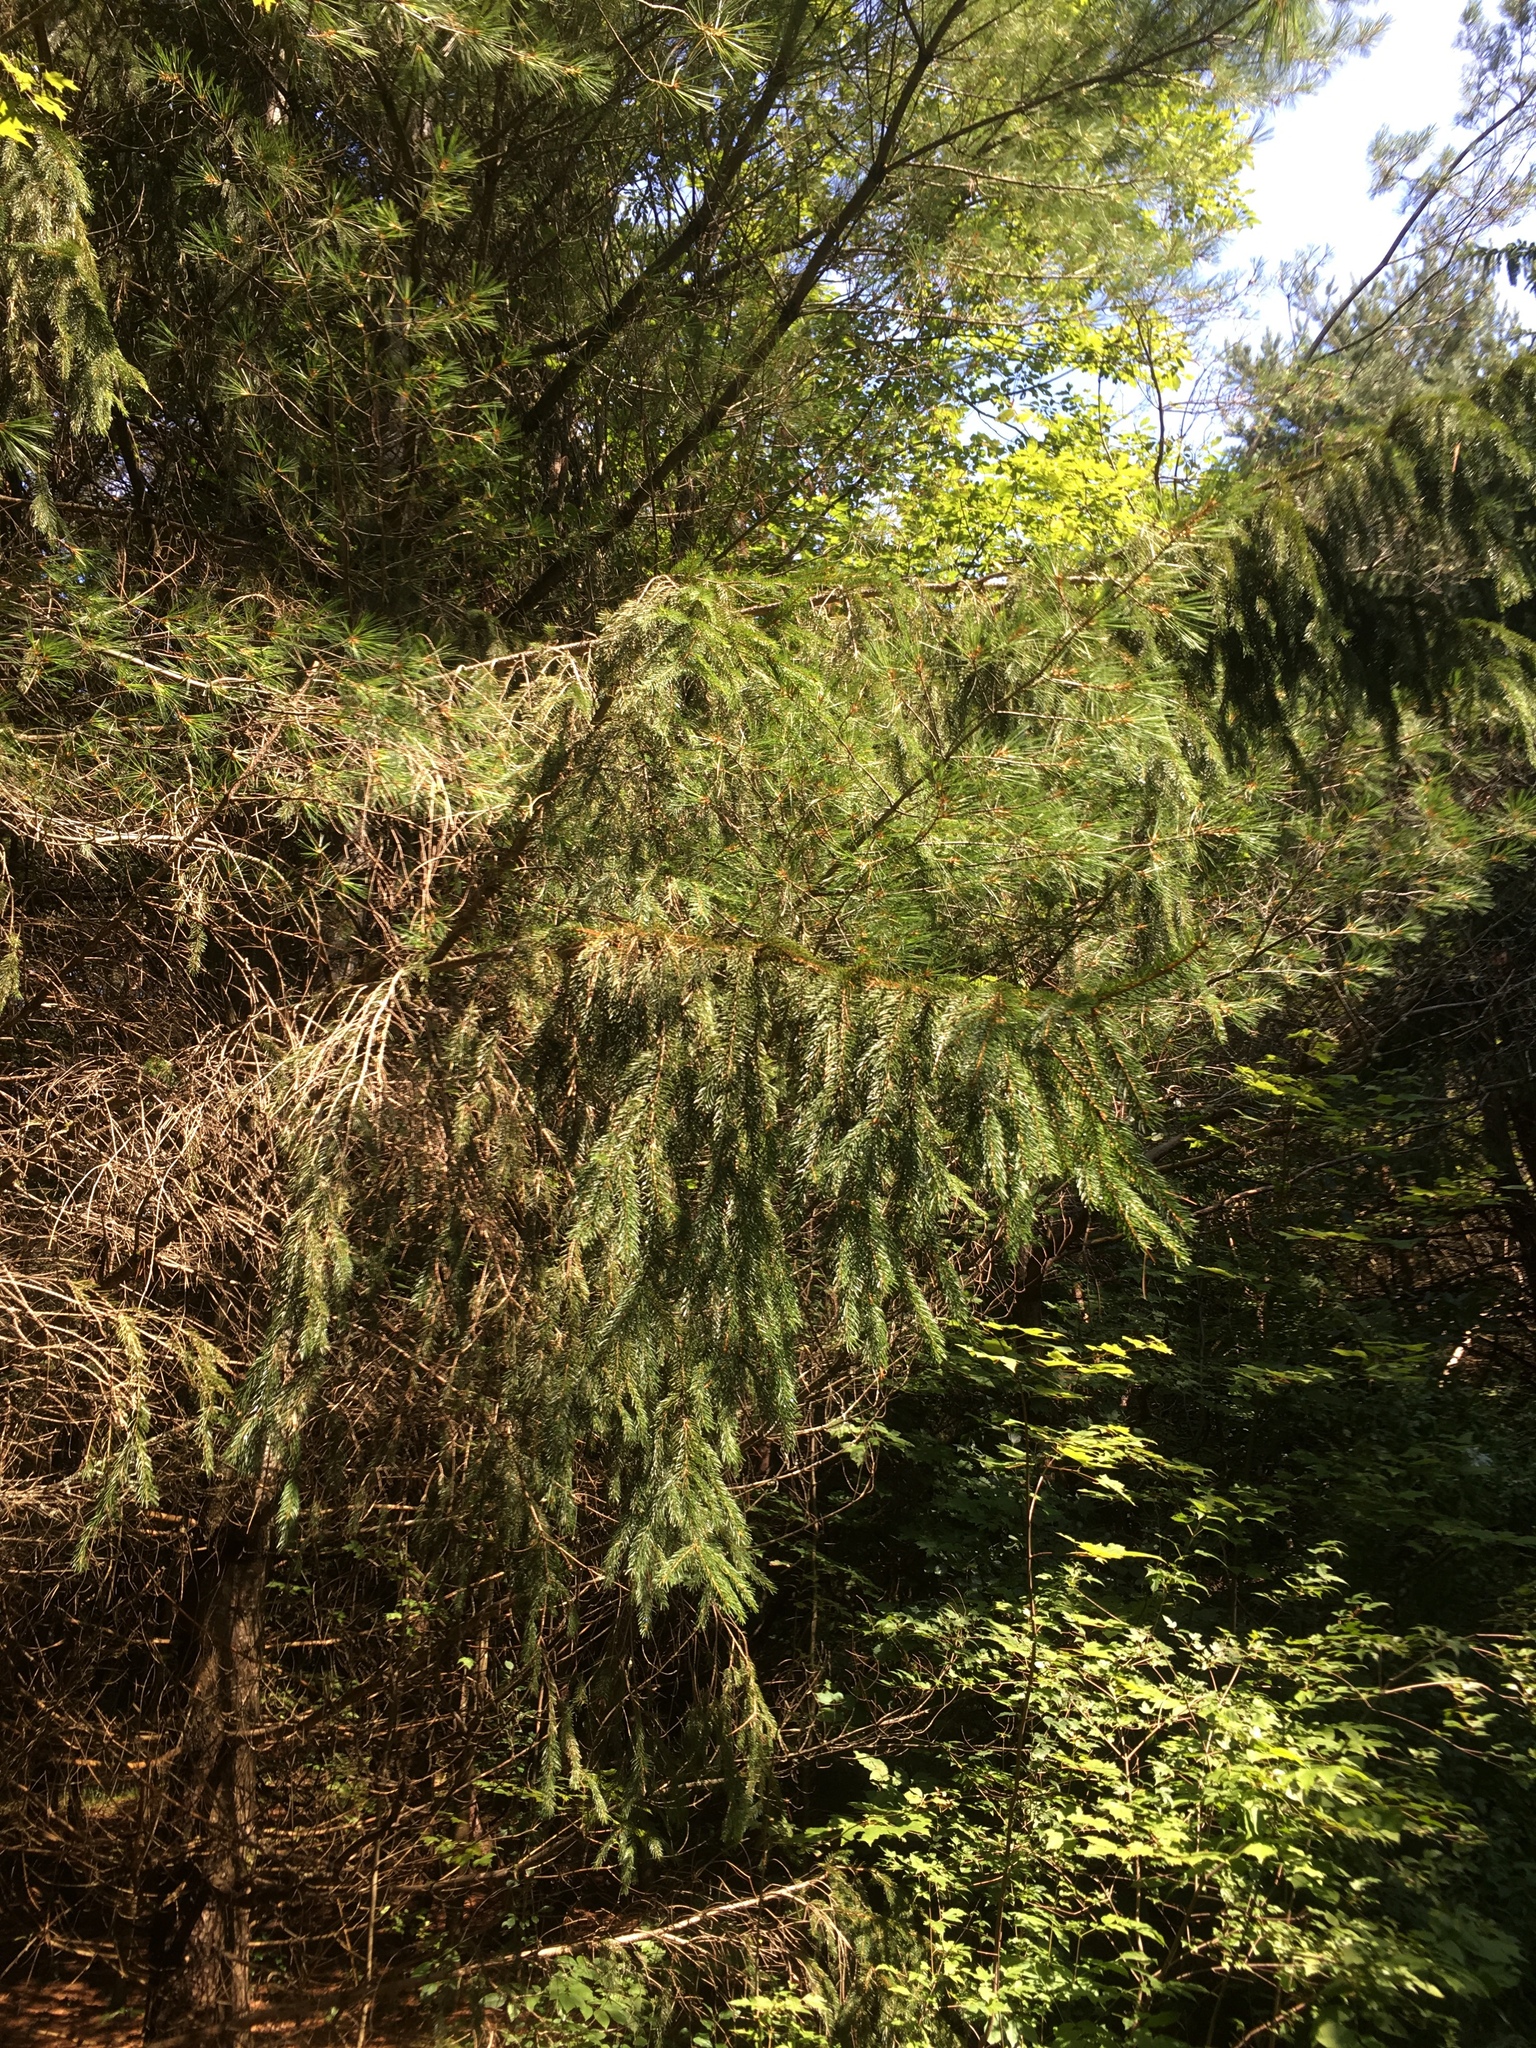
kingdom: Plantae
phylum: Tracheophyta
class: Pinopsida
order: Pinales
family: Pinaceae
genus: Picea
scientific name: Picea abies
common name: Norway spruce
